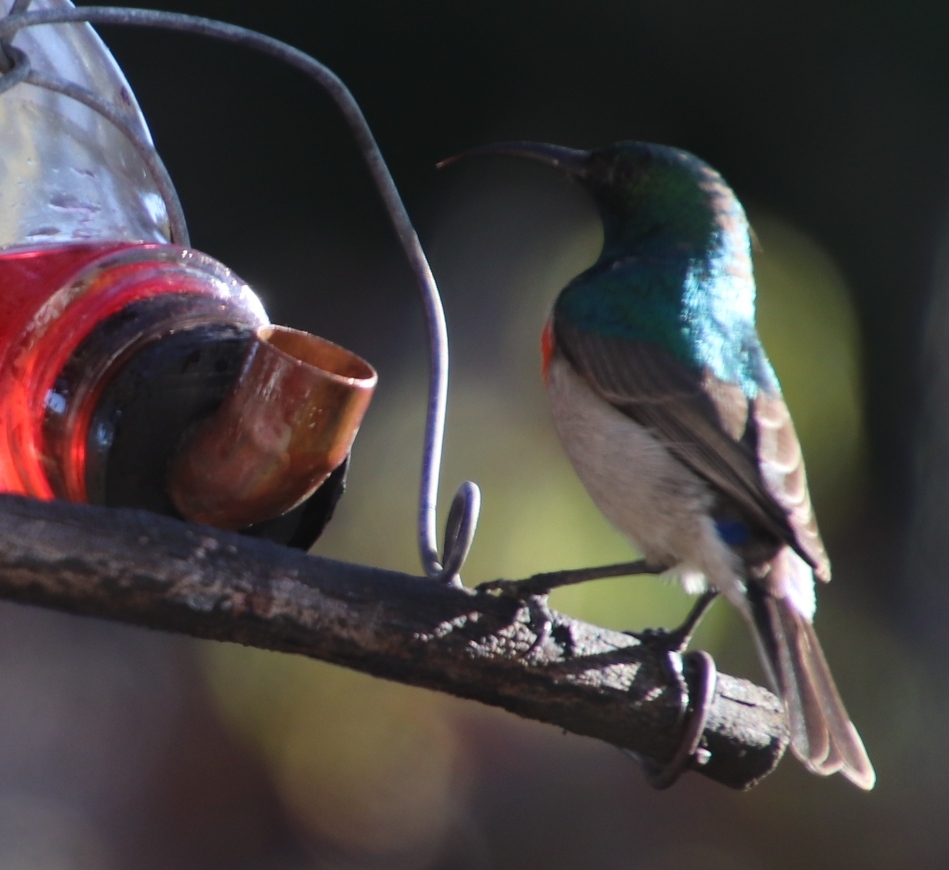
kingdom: Animalia
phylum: Chordata
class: Aves
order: Passeriformes
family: Nectariniidae
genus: Cinnyris
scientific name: Cinnyris chalybeus
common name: Southern double-collared sunbird
